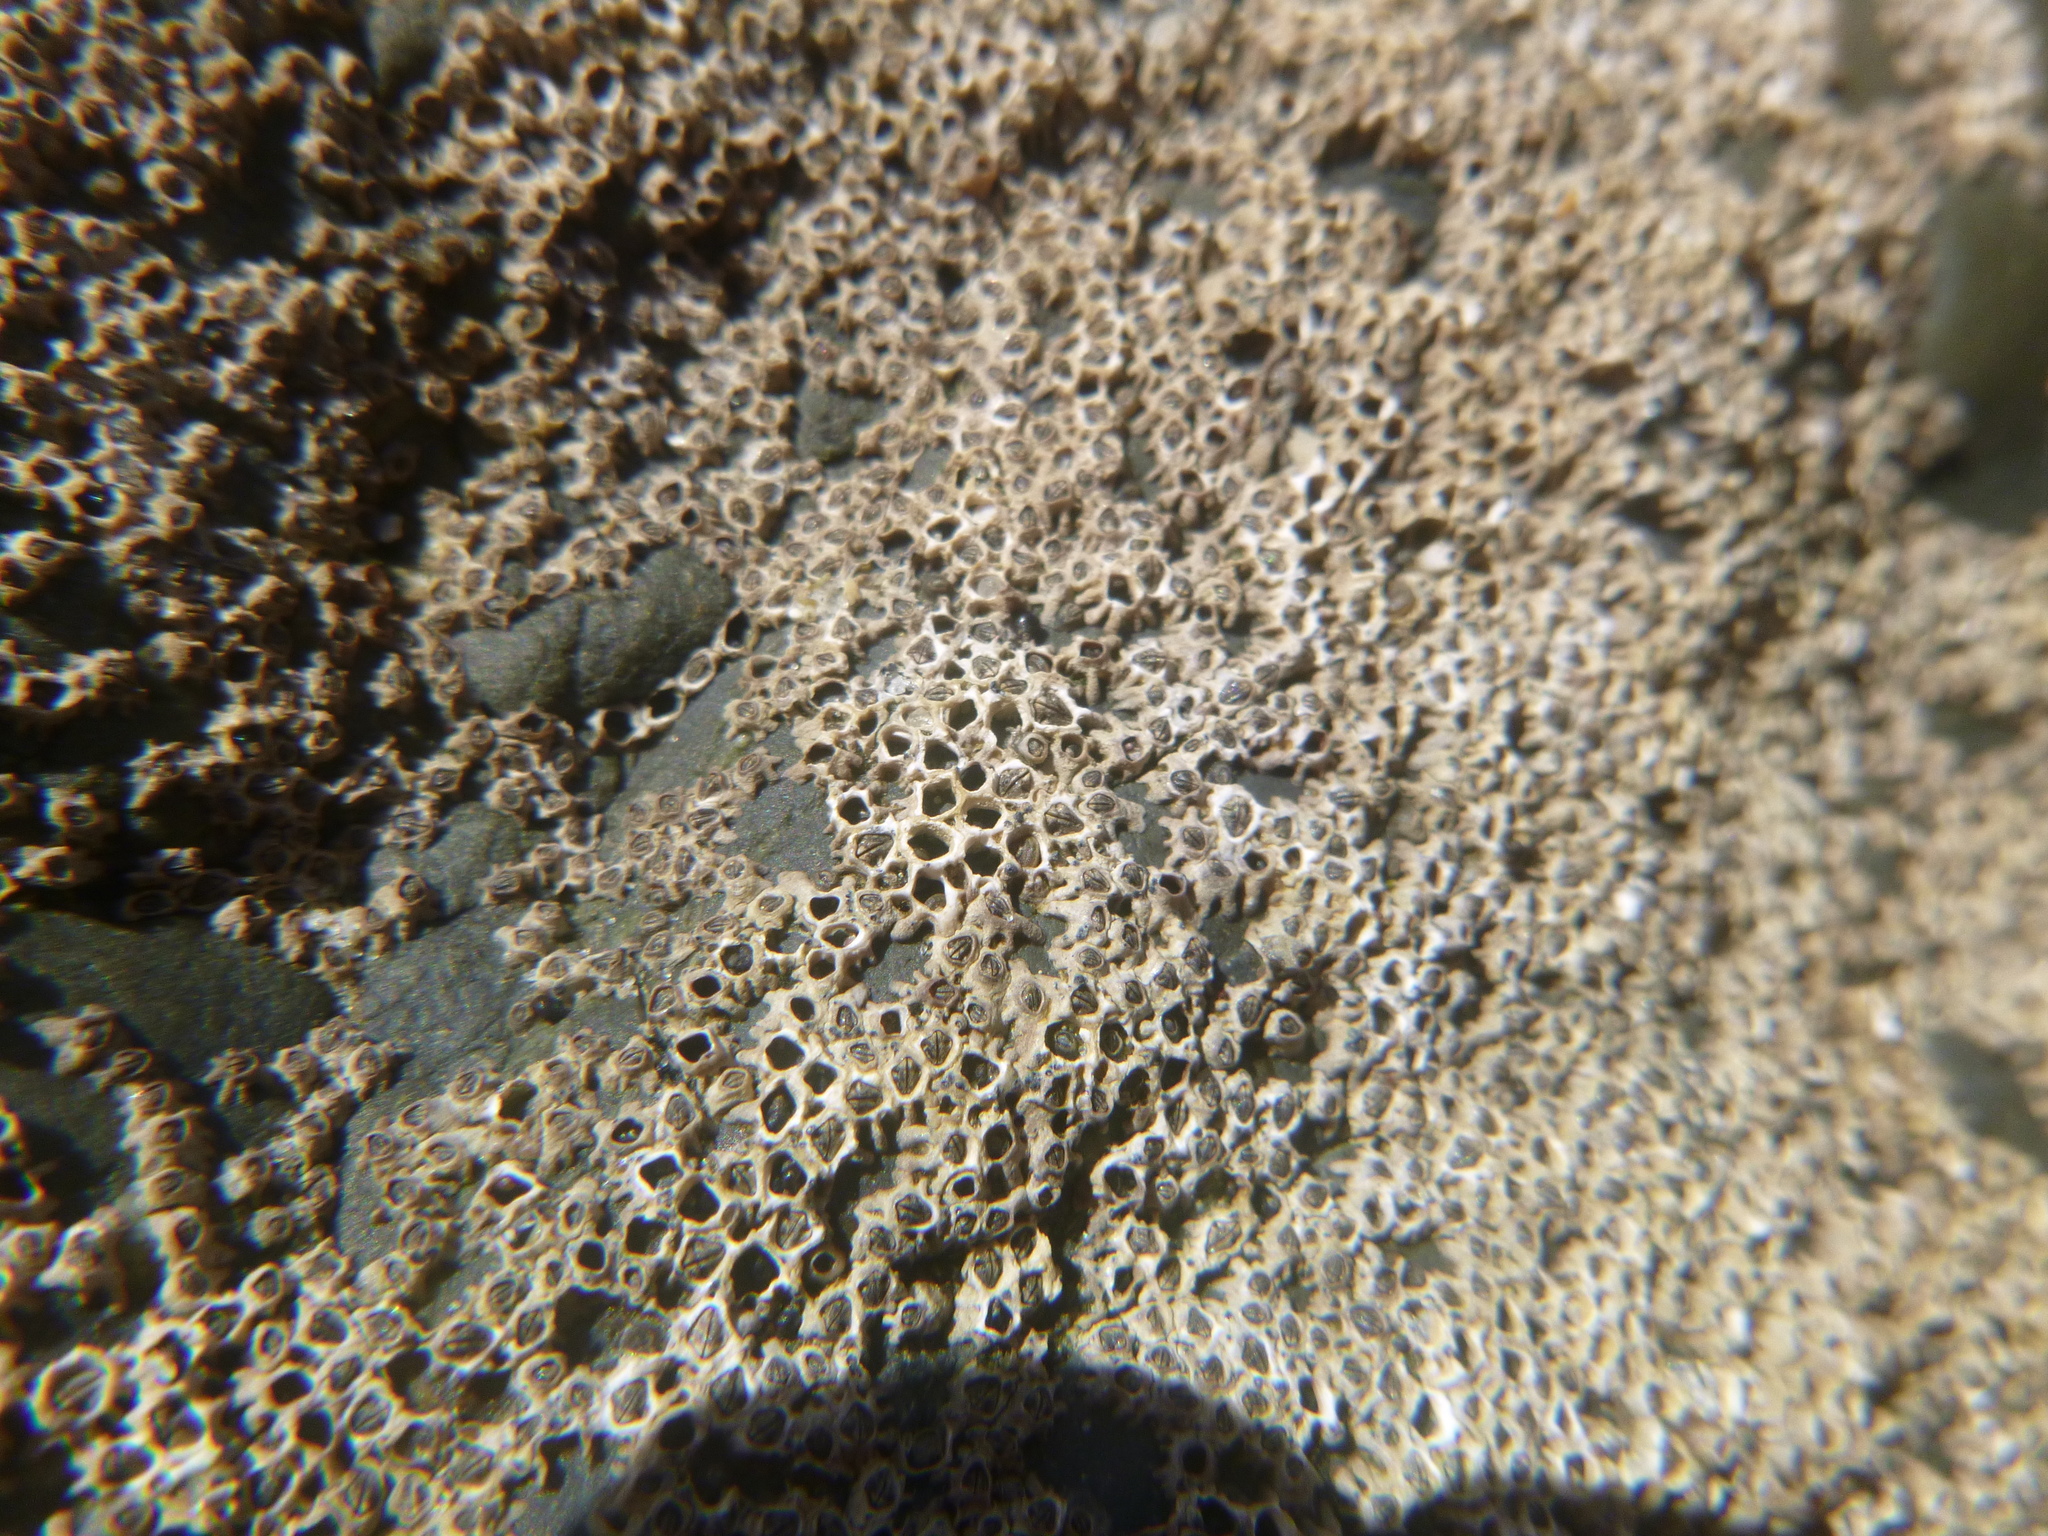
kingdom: Animalia
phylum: Arthropoda
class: Maxillopoda
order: Sessilia
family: Chthamalidae
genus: Chamaesipho
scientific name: Chamaesipho columna
